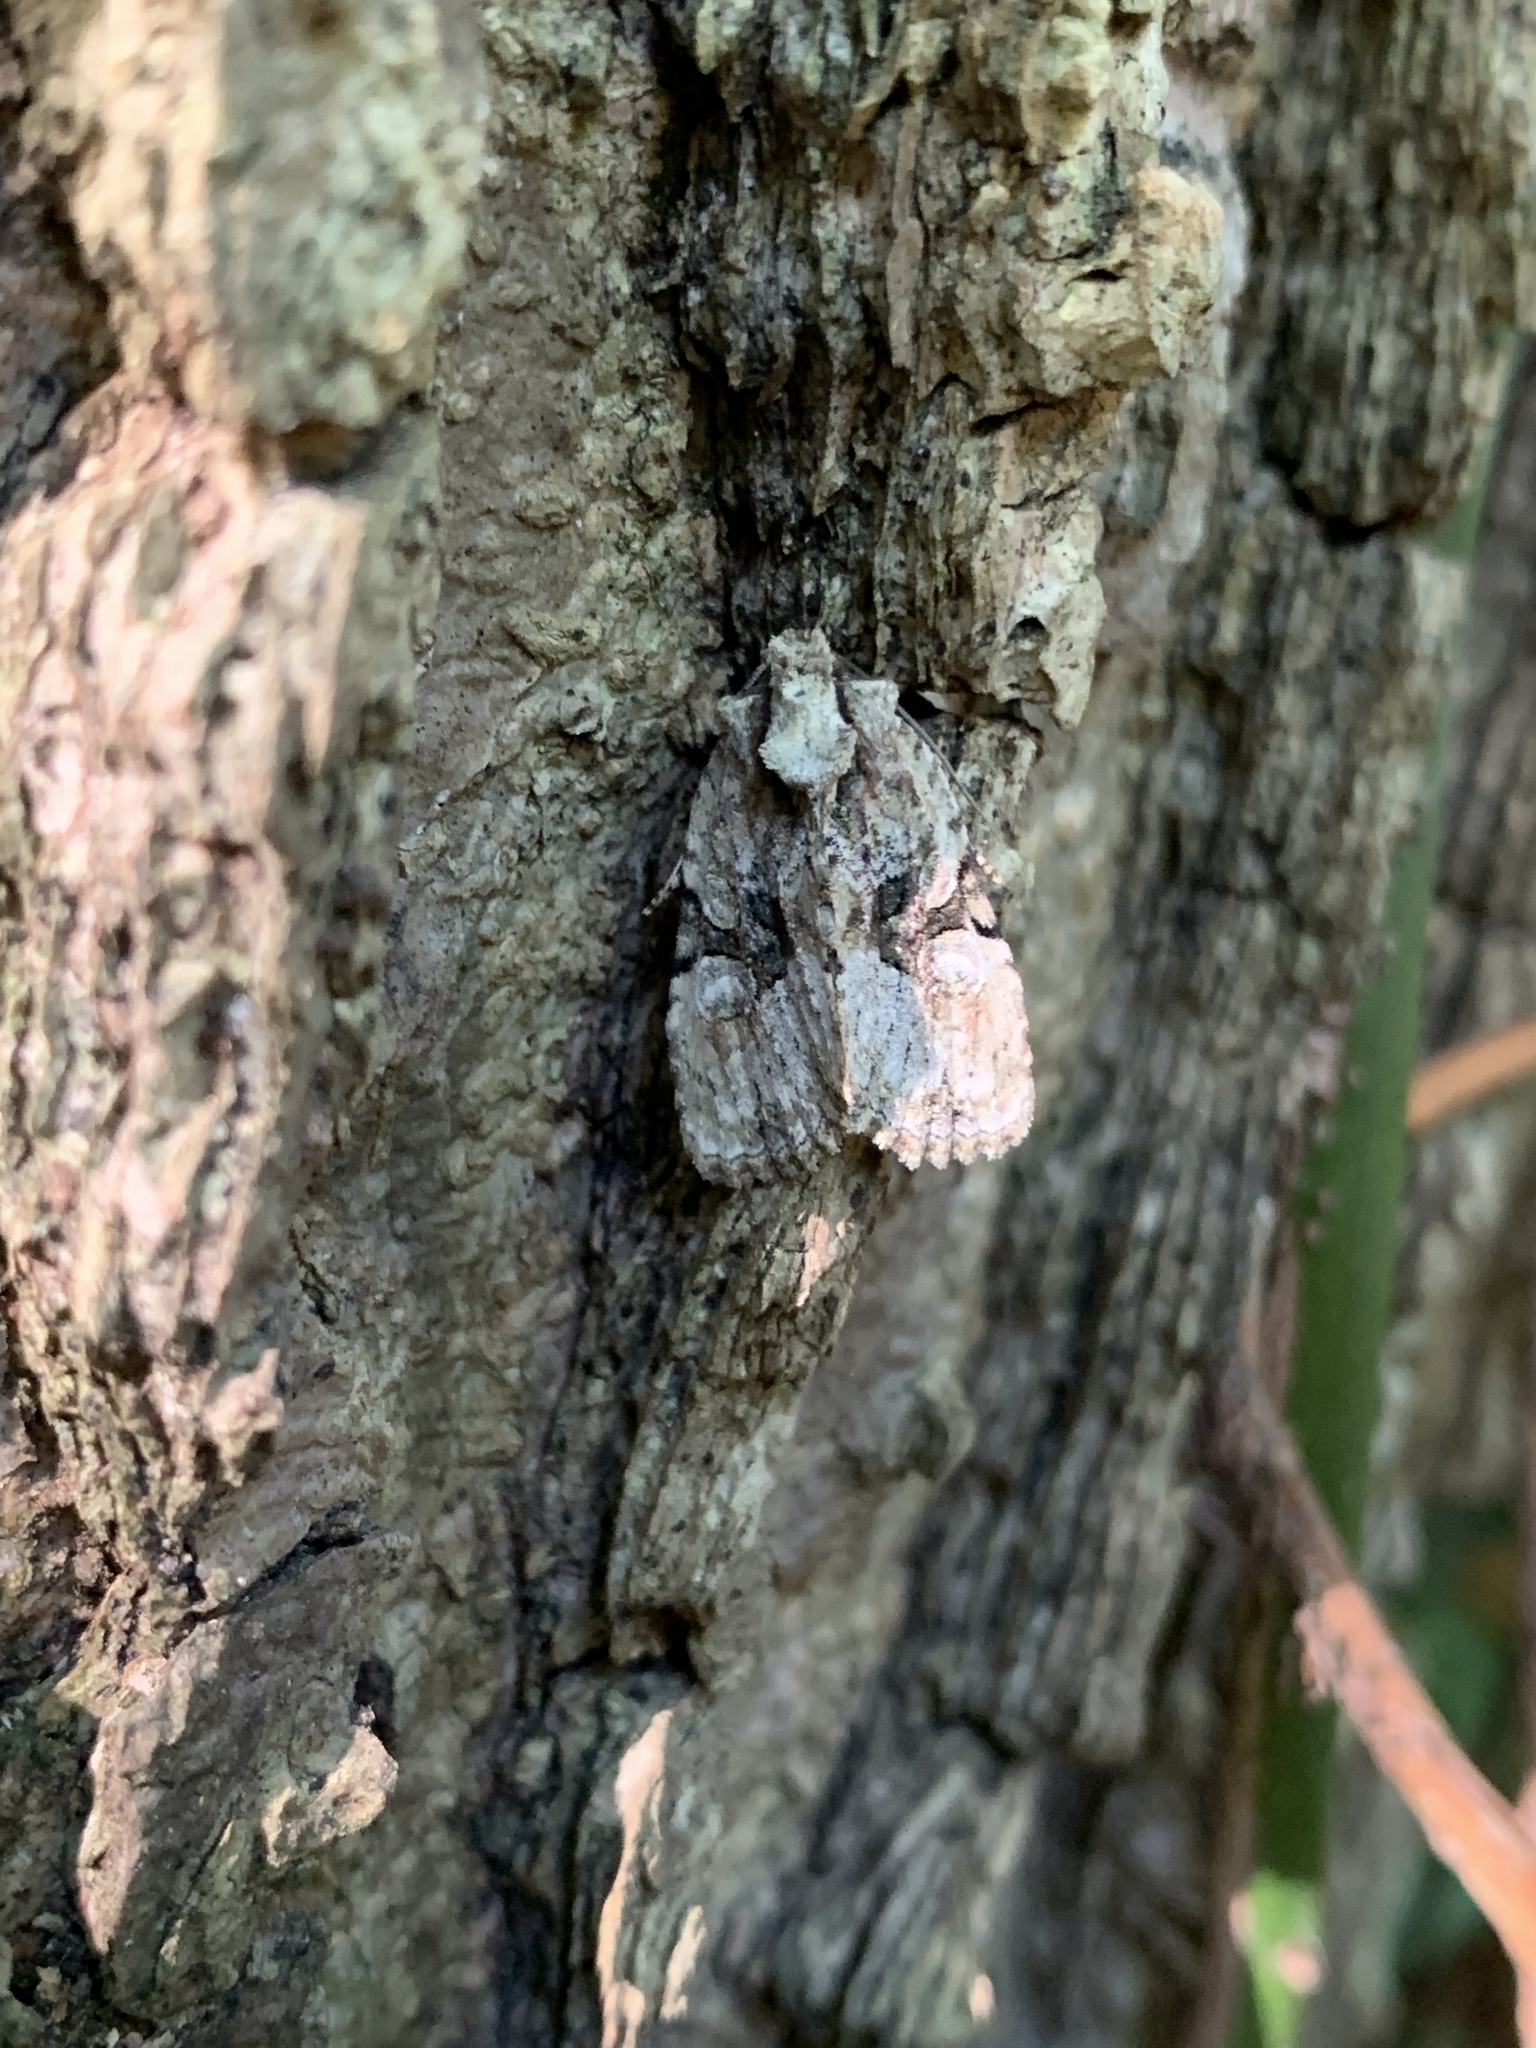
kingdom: Animalia
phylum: Arthropoda
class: Insecta
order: Lepidoptera
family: Noctuidae
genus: Oligia
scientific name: Oligia modica
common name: Black-banded brocade
